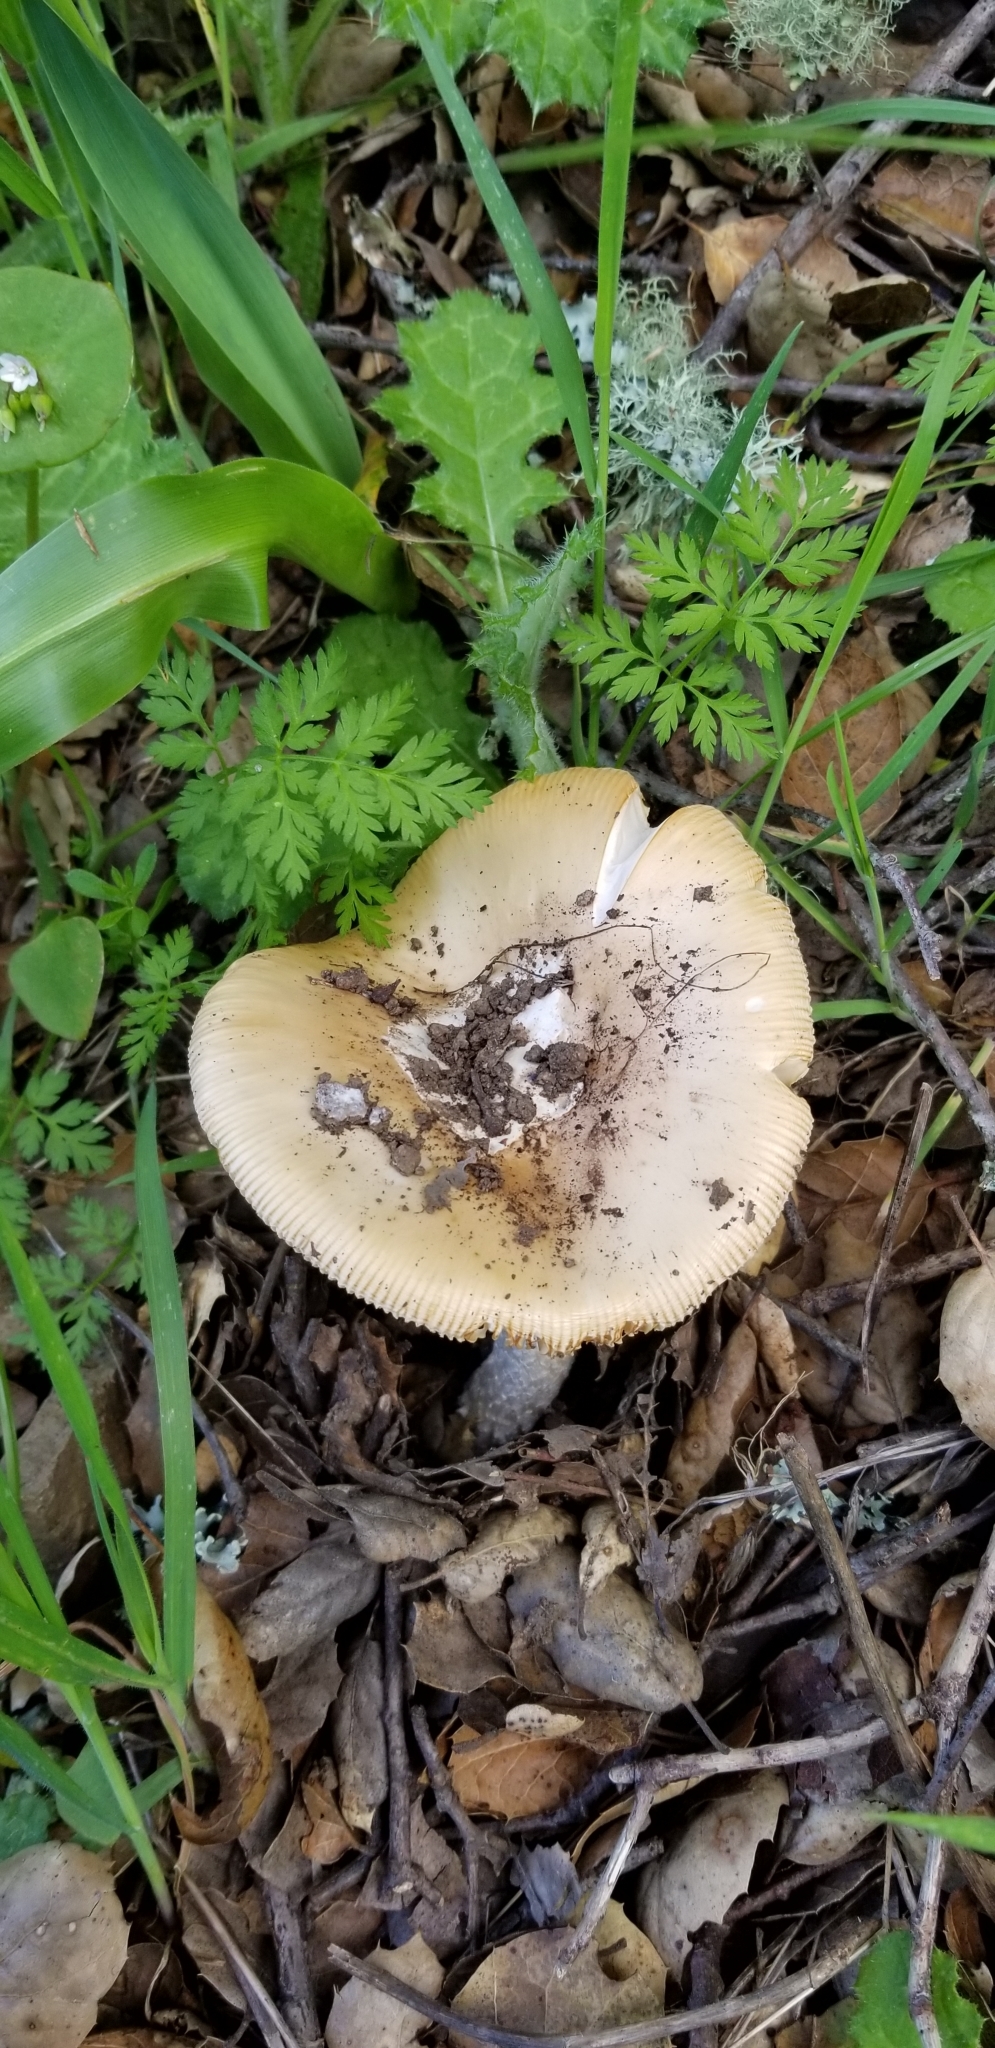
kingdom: Fungi
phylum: Basidiomycota
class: Agaricomycetes
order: Agaricales
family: Amanitaceae
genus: Amanita
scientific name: Amanita velosa
